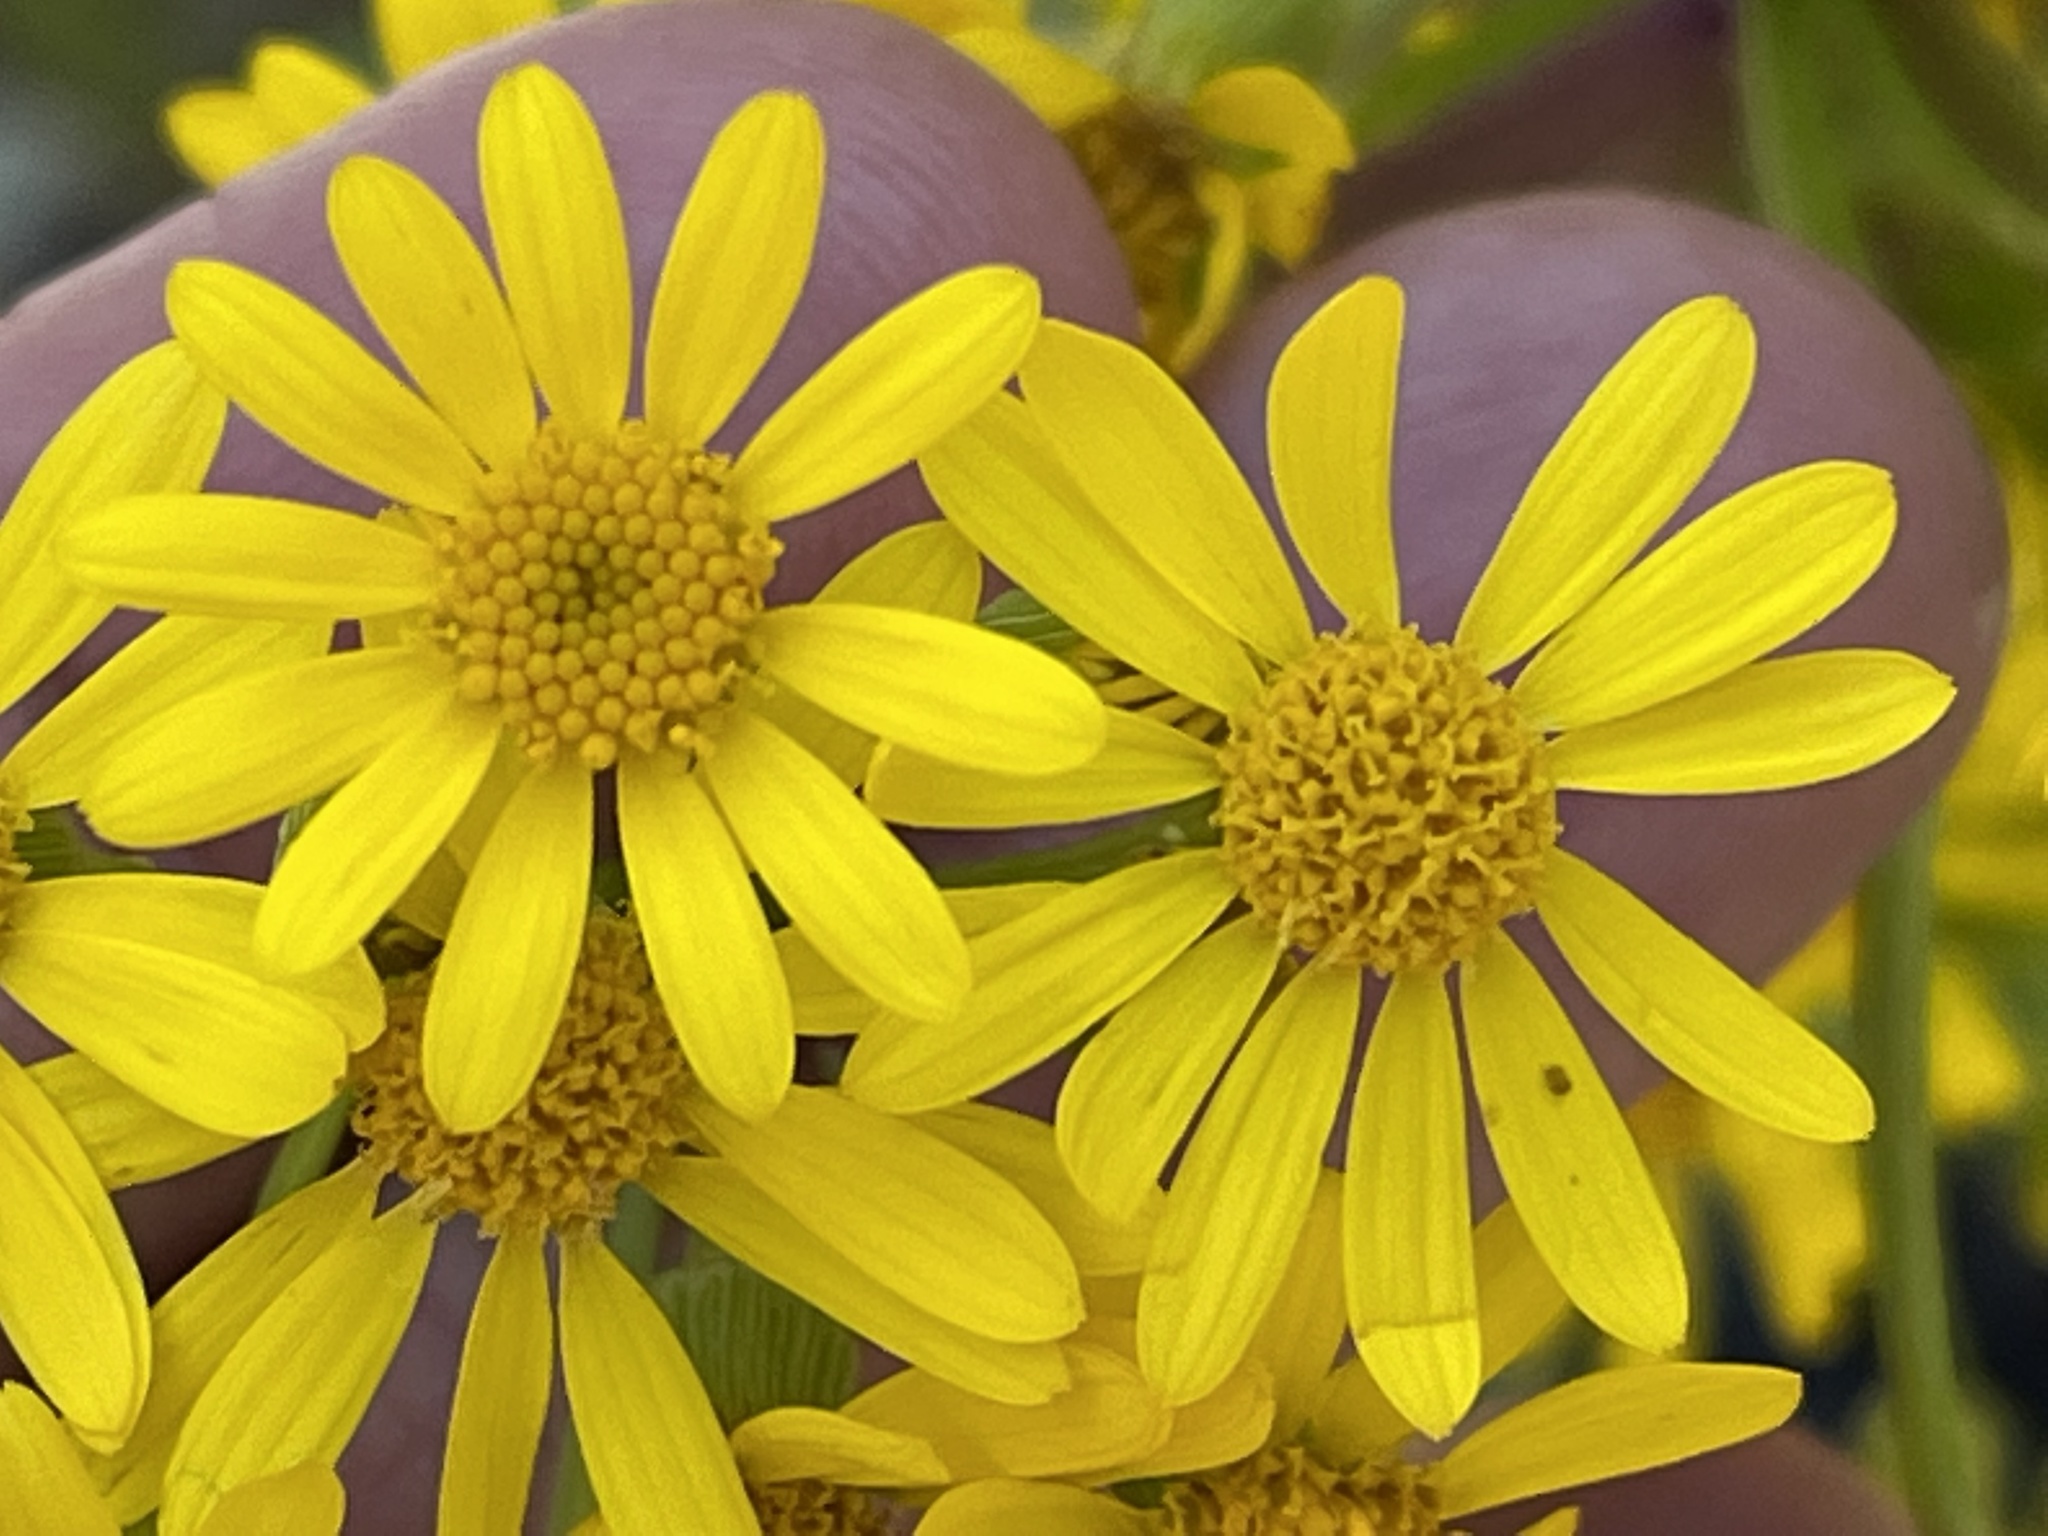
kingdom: Plantae
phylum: Tracheophyta
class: Magnoliopsida
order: Asterales
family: Asteraceae
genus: Packera
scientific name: Packera glabella
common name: Butterweed
